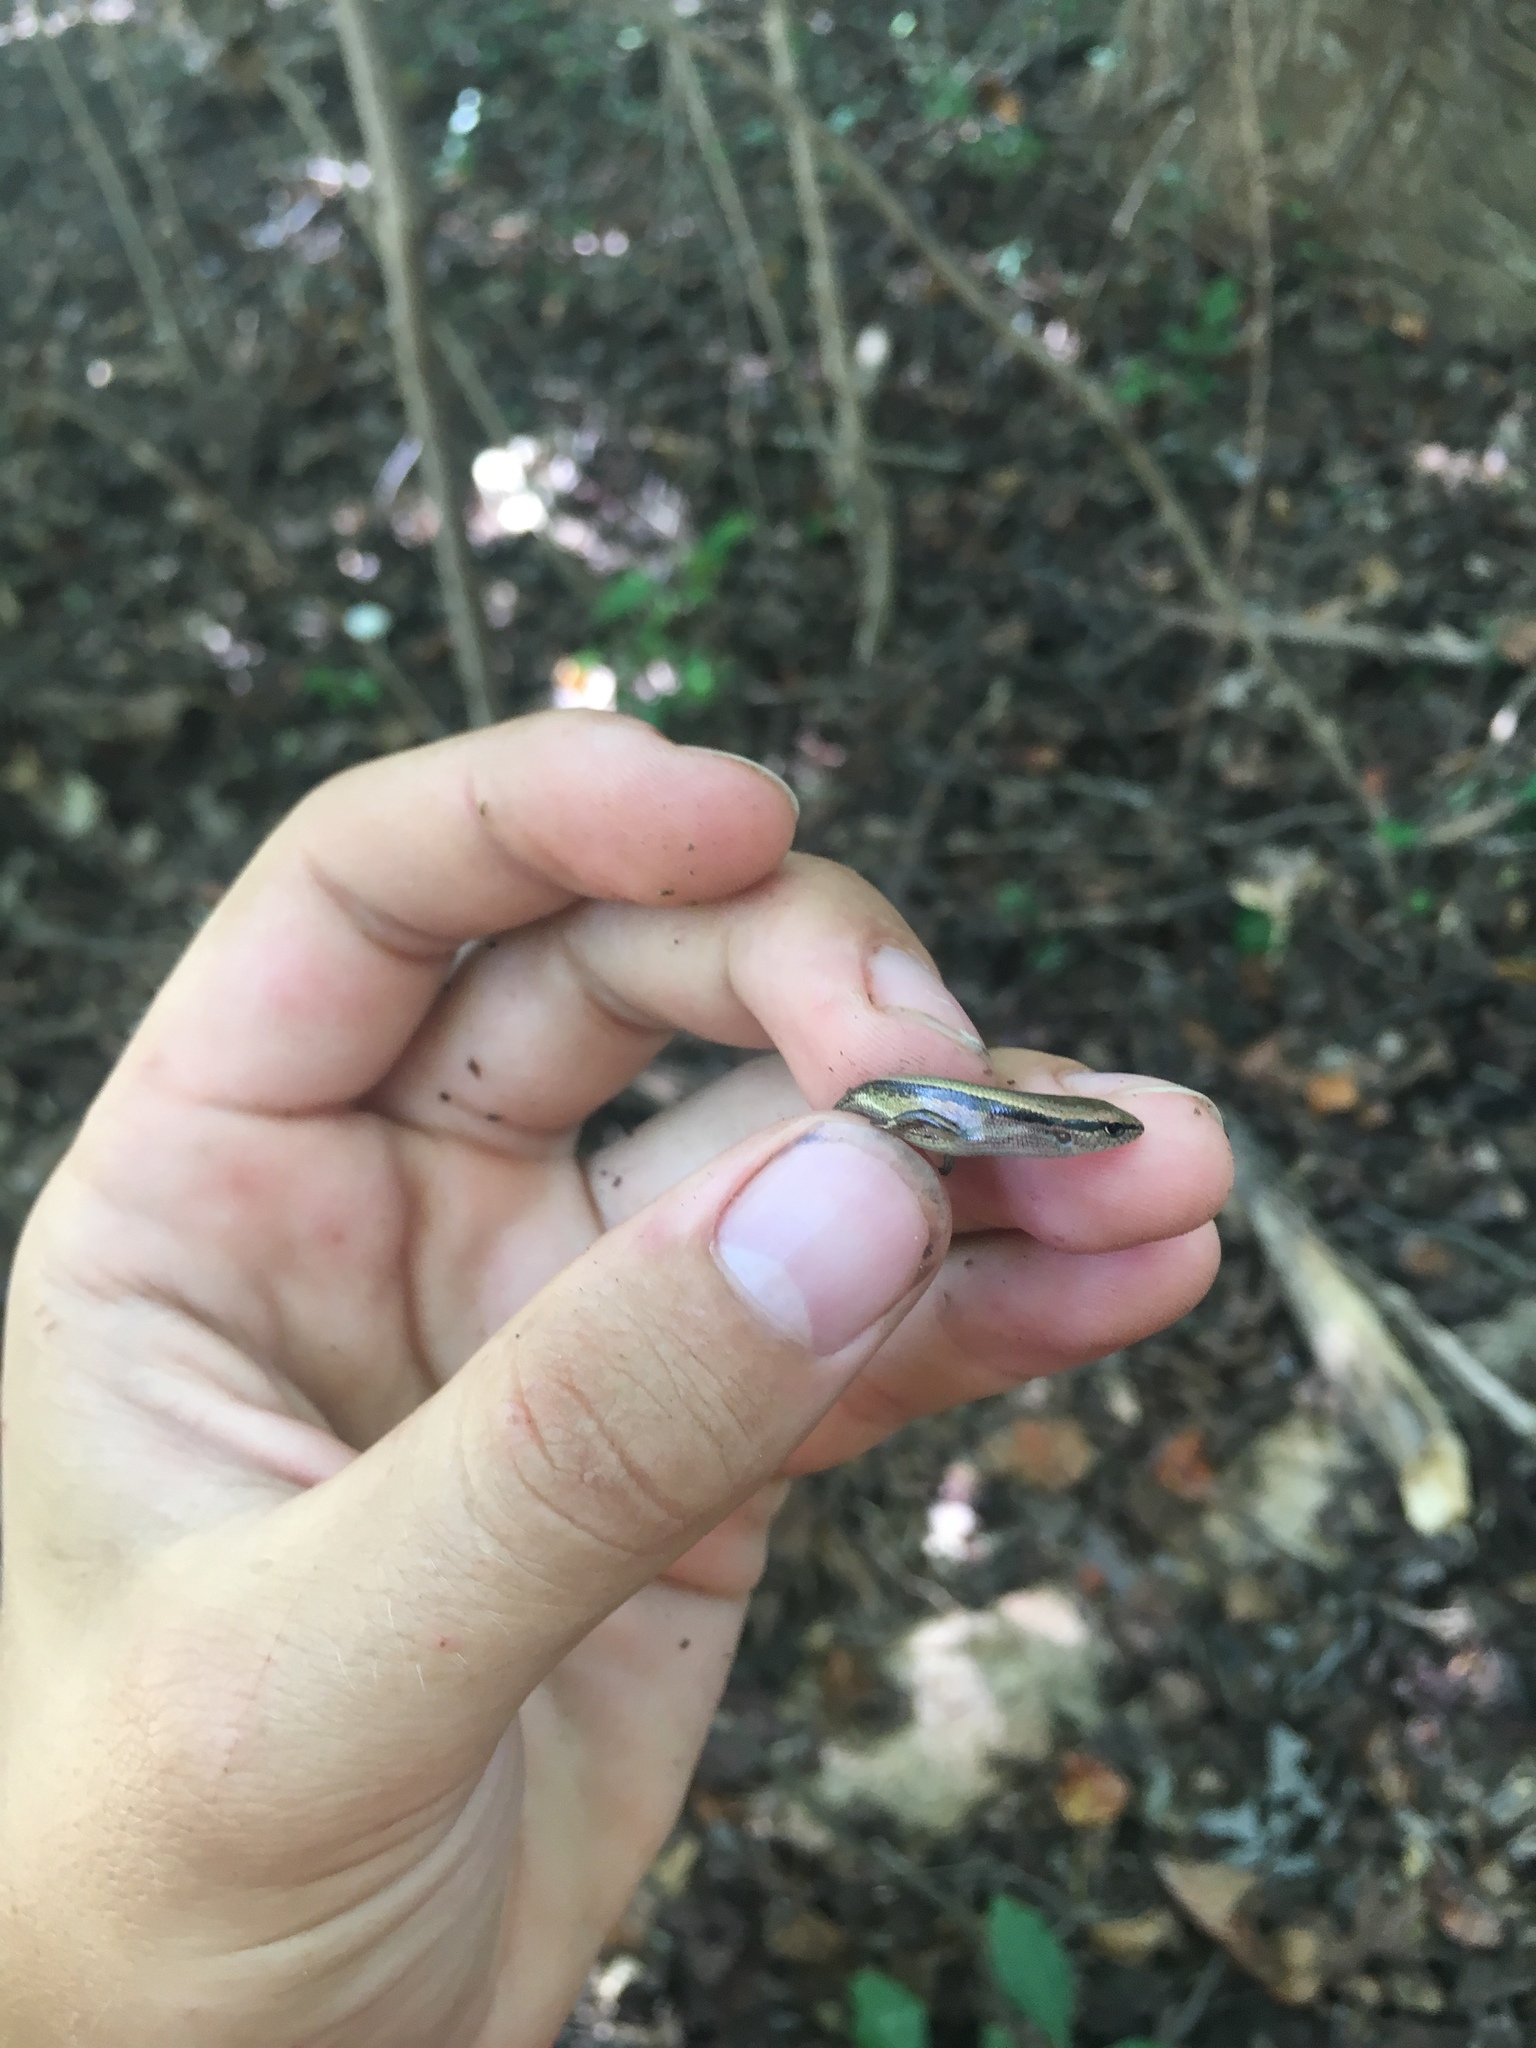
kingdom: Animalia
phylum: Chordata
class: Squamata
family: Scincidae
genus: Scincella
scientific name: Scincella lateralis
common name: Ground skink
